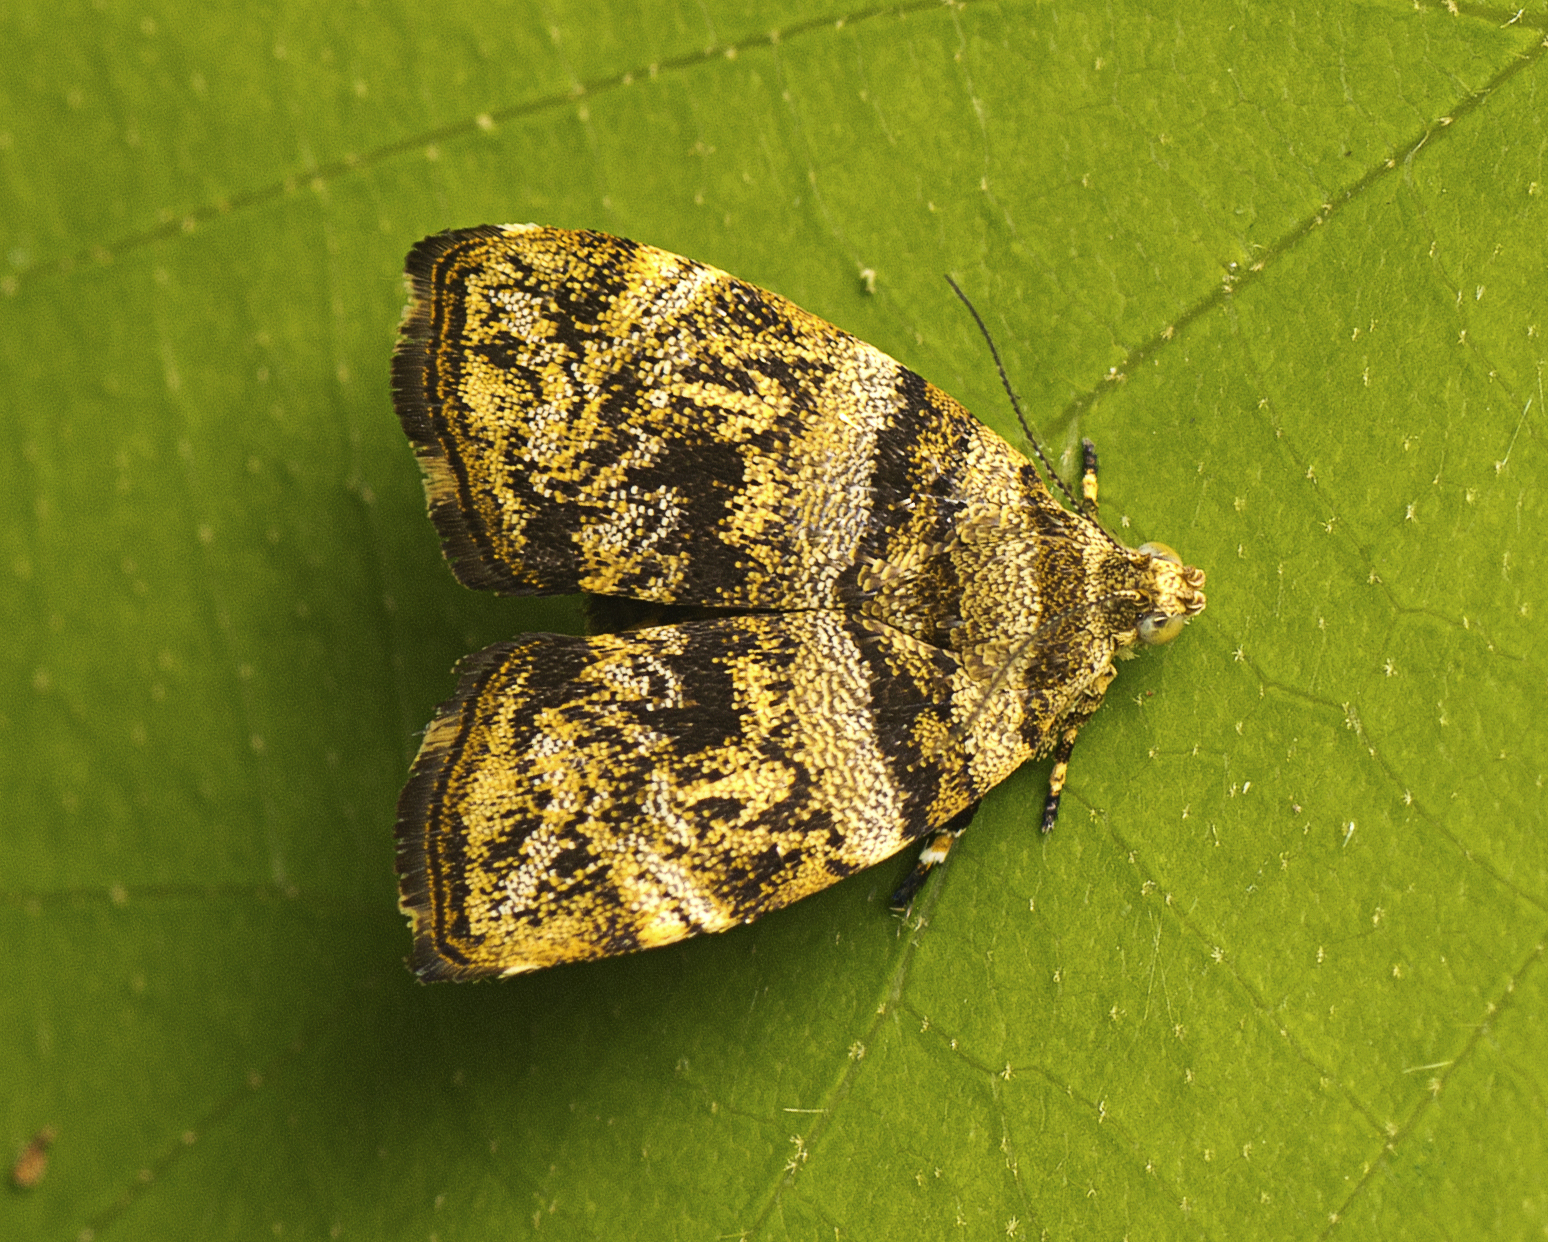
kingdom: Animalia
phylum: Arthropoda
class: Insecta
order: Lepidoptera
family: Choreutidae
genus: Choreutis
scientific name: Choreutis ophiosema
